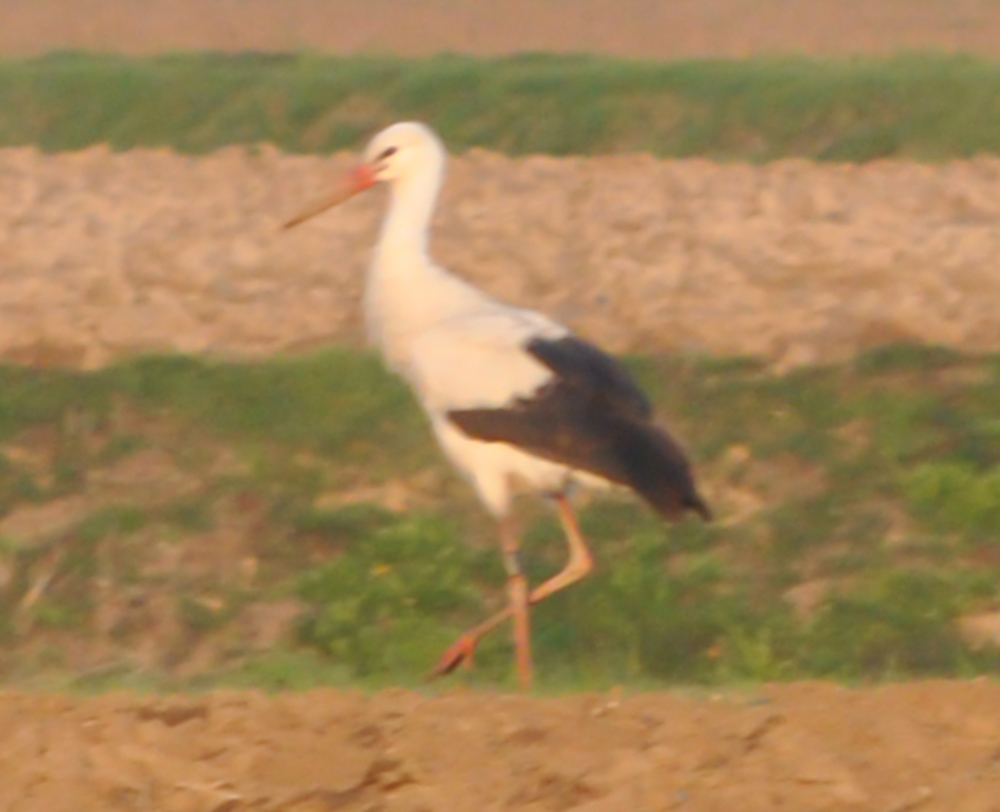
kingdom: Animalia
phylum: Chordata
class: Aves
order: Ciconiiformes
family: Ciconiidae
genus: Ciconia
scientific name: Ciconia ciconia
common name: White stork
